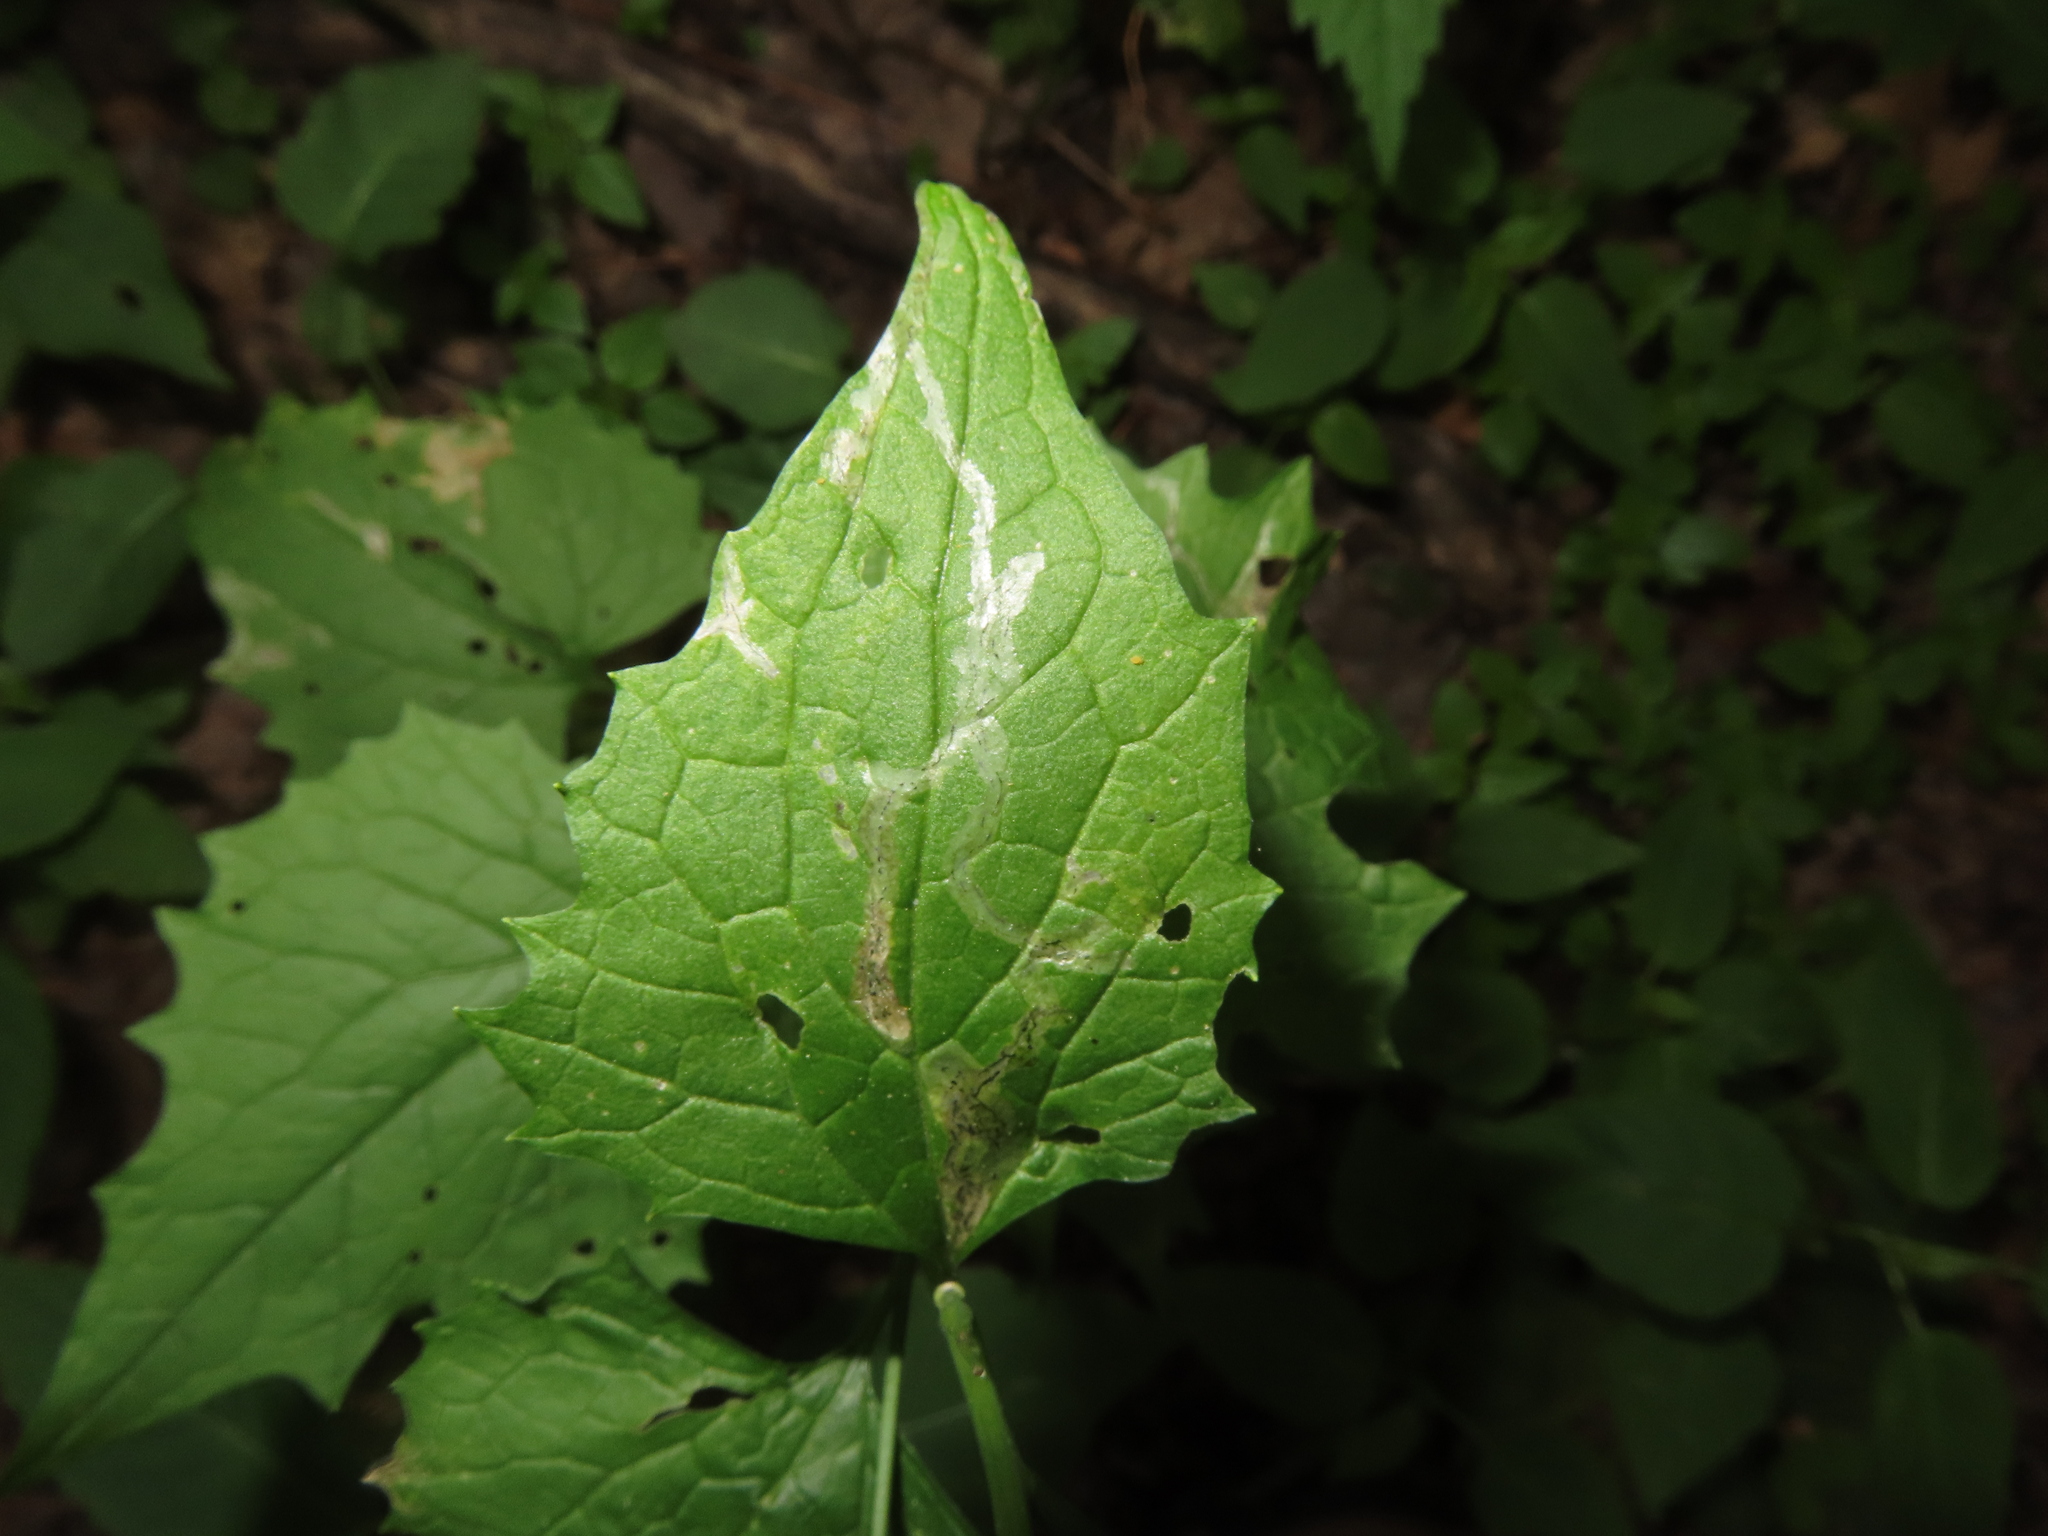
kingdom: Animalia
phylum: Arthropoda
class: Insecta
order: Diptera
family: Agromyzidae
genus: Liriomyza
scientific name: Liriomyza brassicae
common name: Serpentine leaf miner
